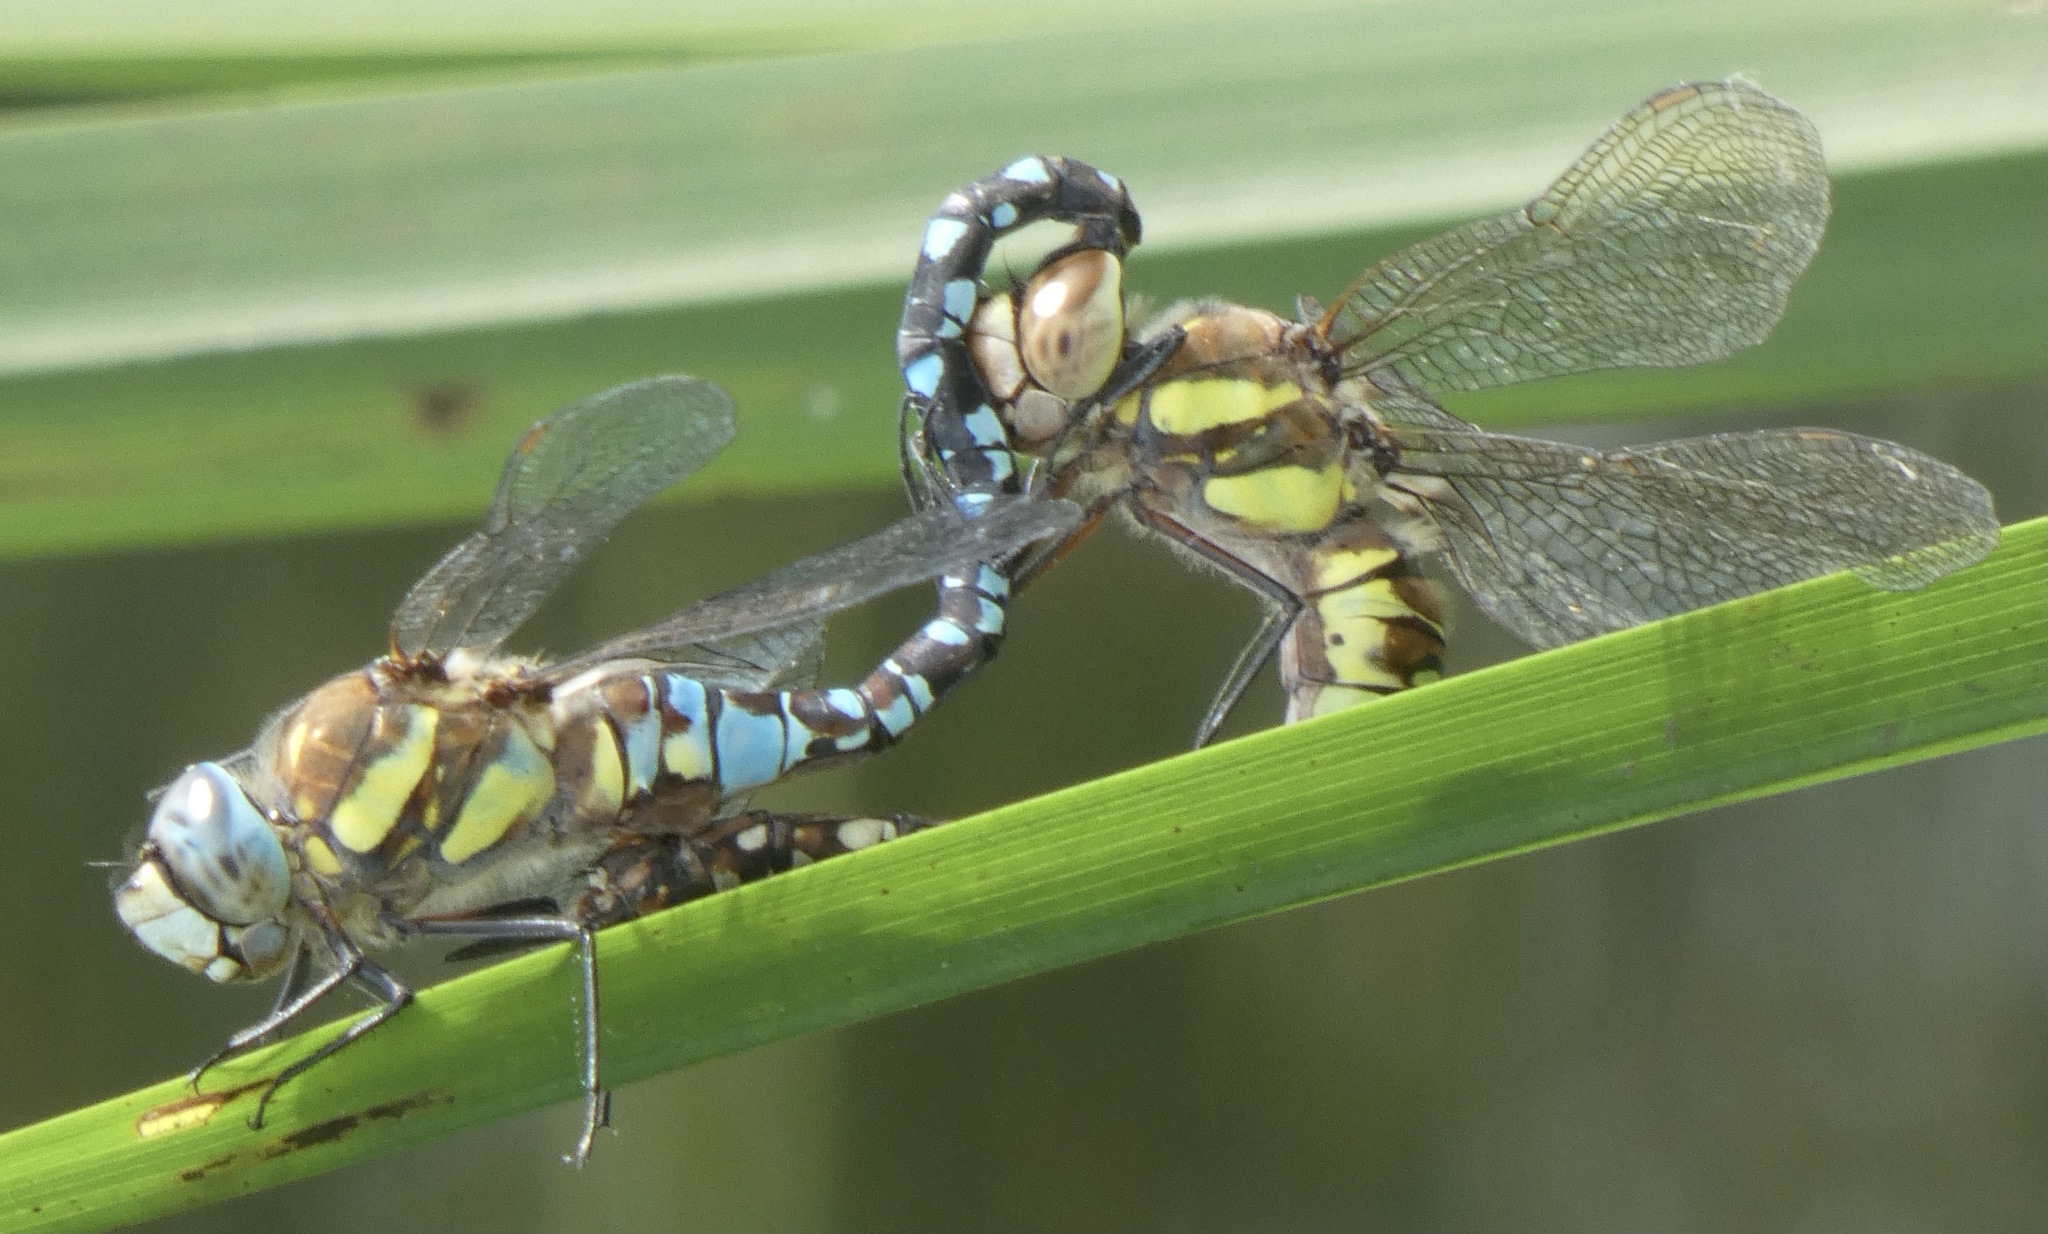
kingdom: Animalia
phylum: Arthropoda
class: Insecta
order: Odonata
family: Aeshnidae
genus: Aeshna
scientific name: Aeshna mixta
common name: Migrant hawker
